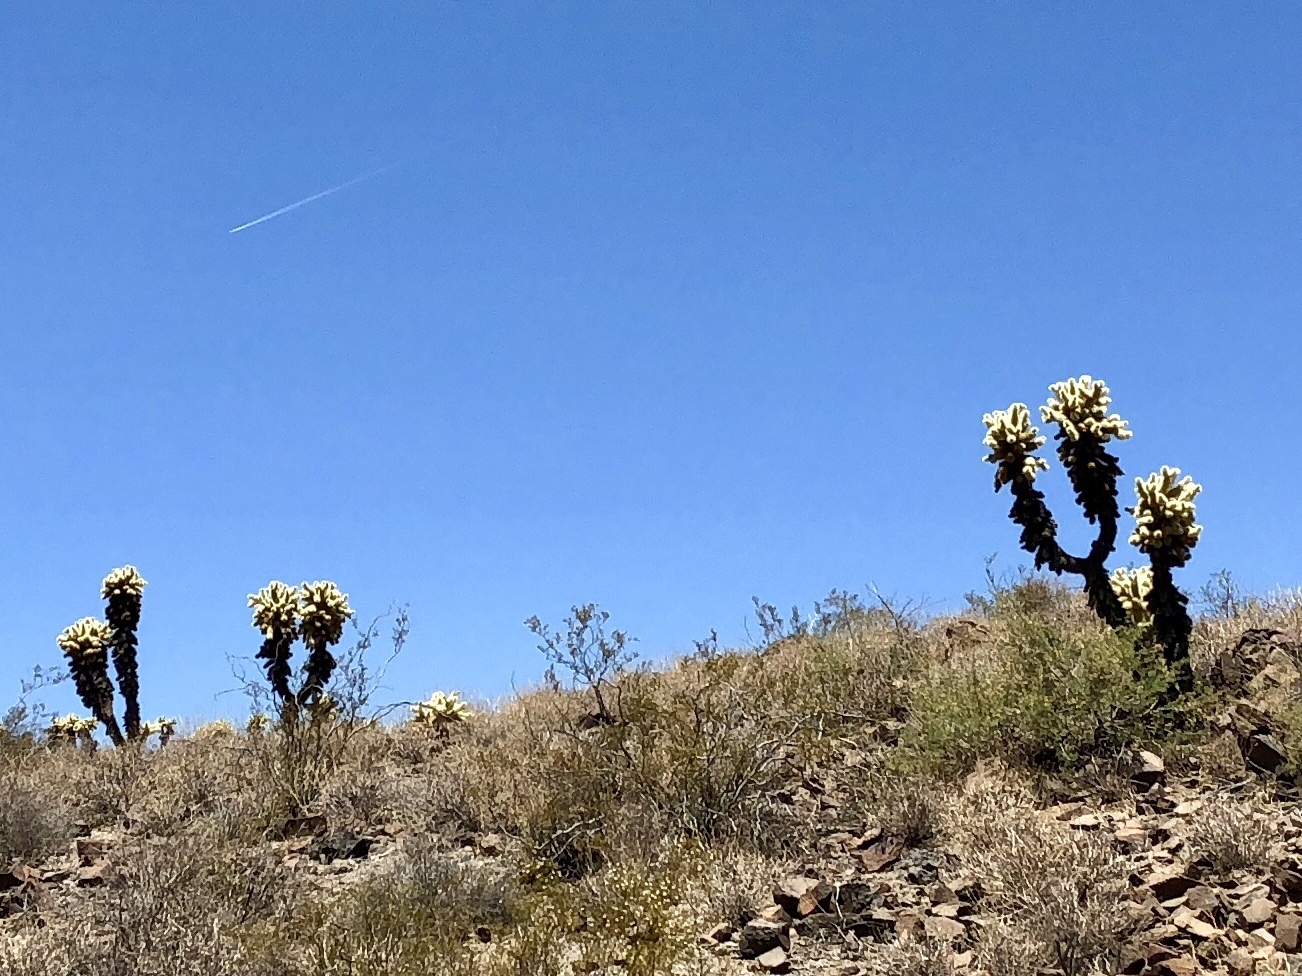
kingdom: Plantae
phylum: Tracheophyta
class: Magnoliopsida
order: Caryophyllales
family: Cactaceae
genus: Cylindropuntia
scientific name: Cylindropuntia fosbergii
